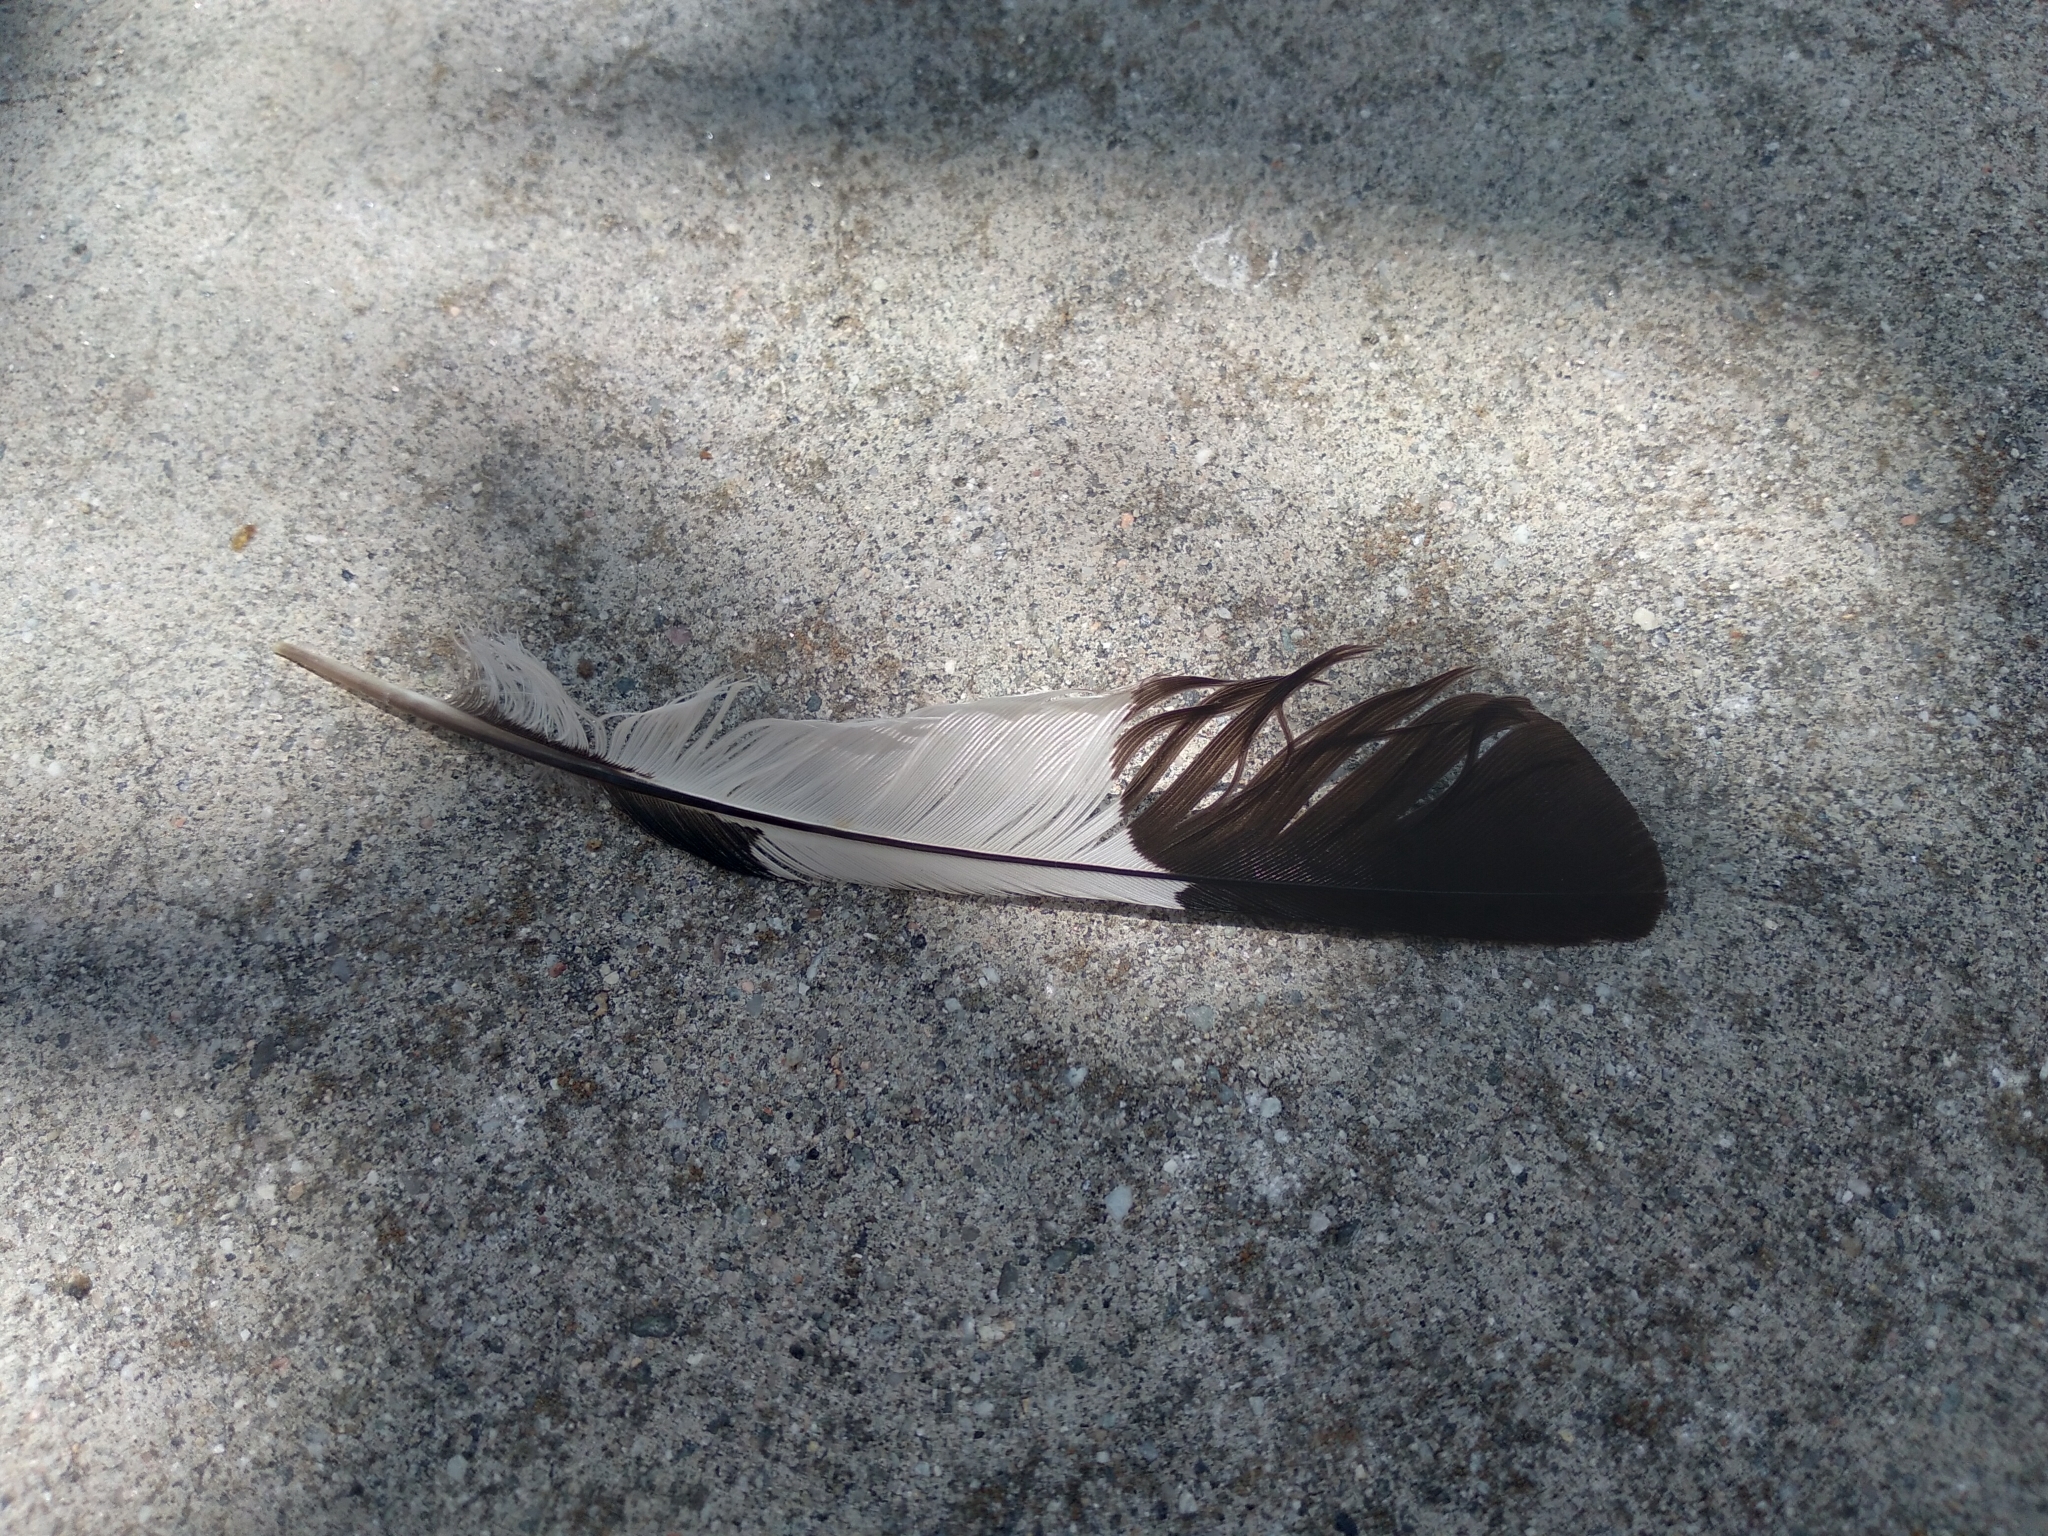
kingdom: Animalia
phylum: Chordata
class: Aves
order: Piciformes
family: Picidae
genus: Melanerpes
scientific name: Melanerpes formicivorus
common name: Acorn woodpecker
